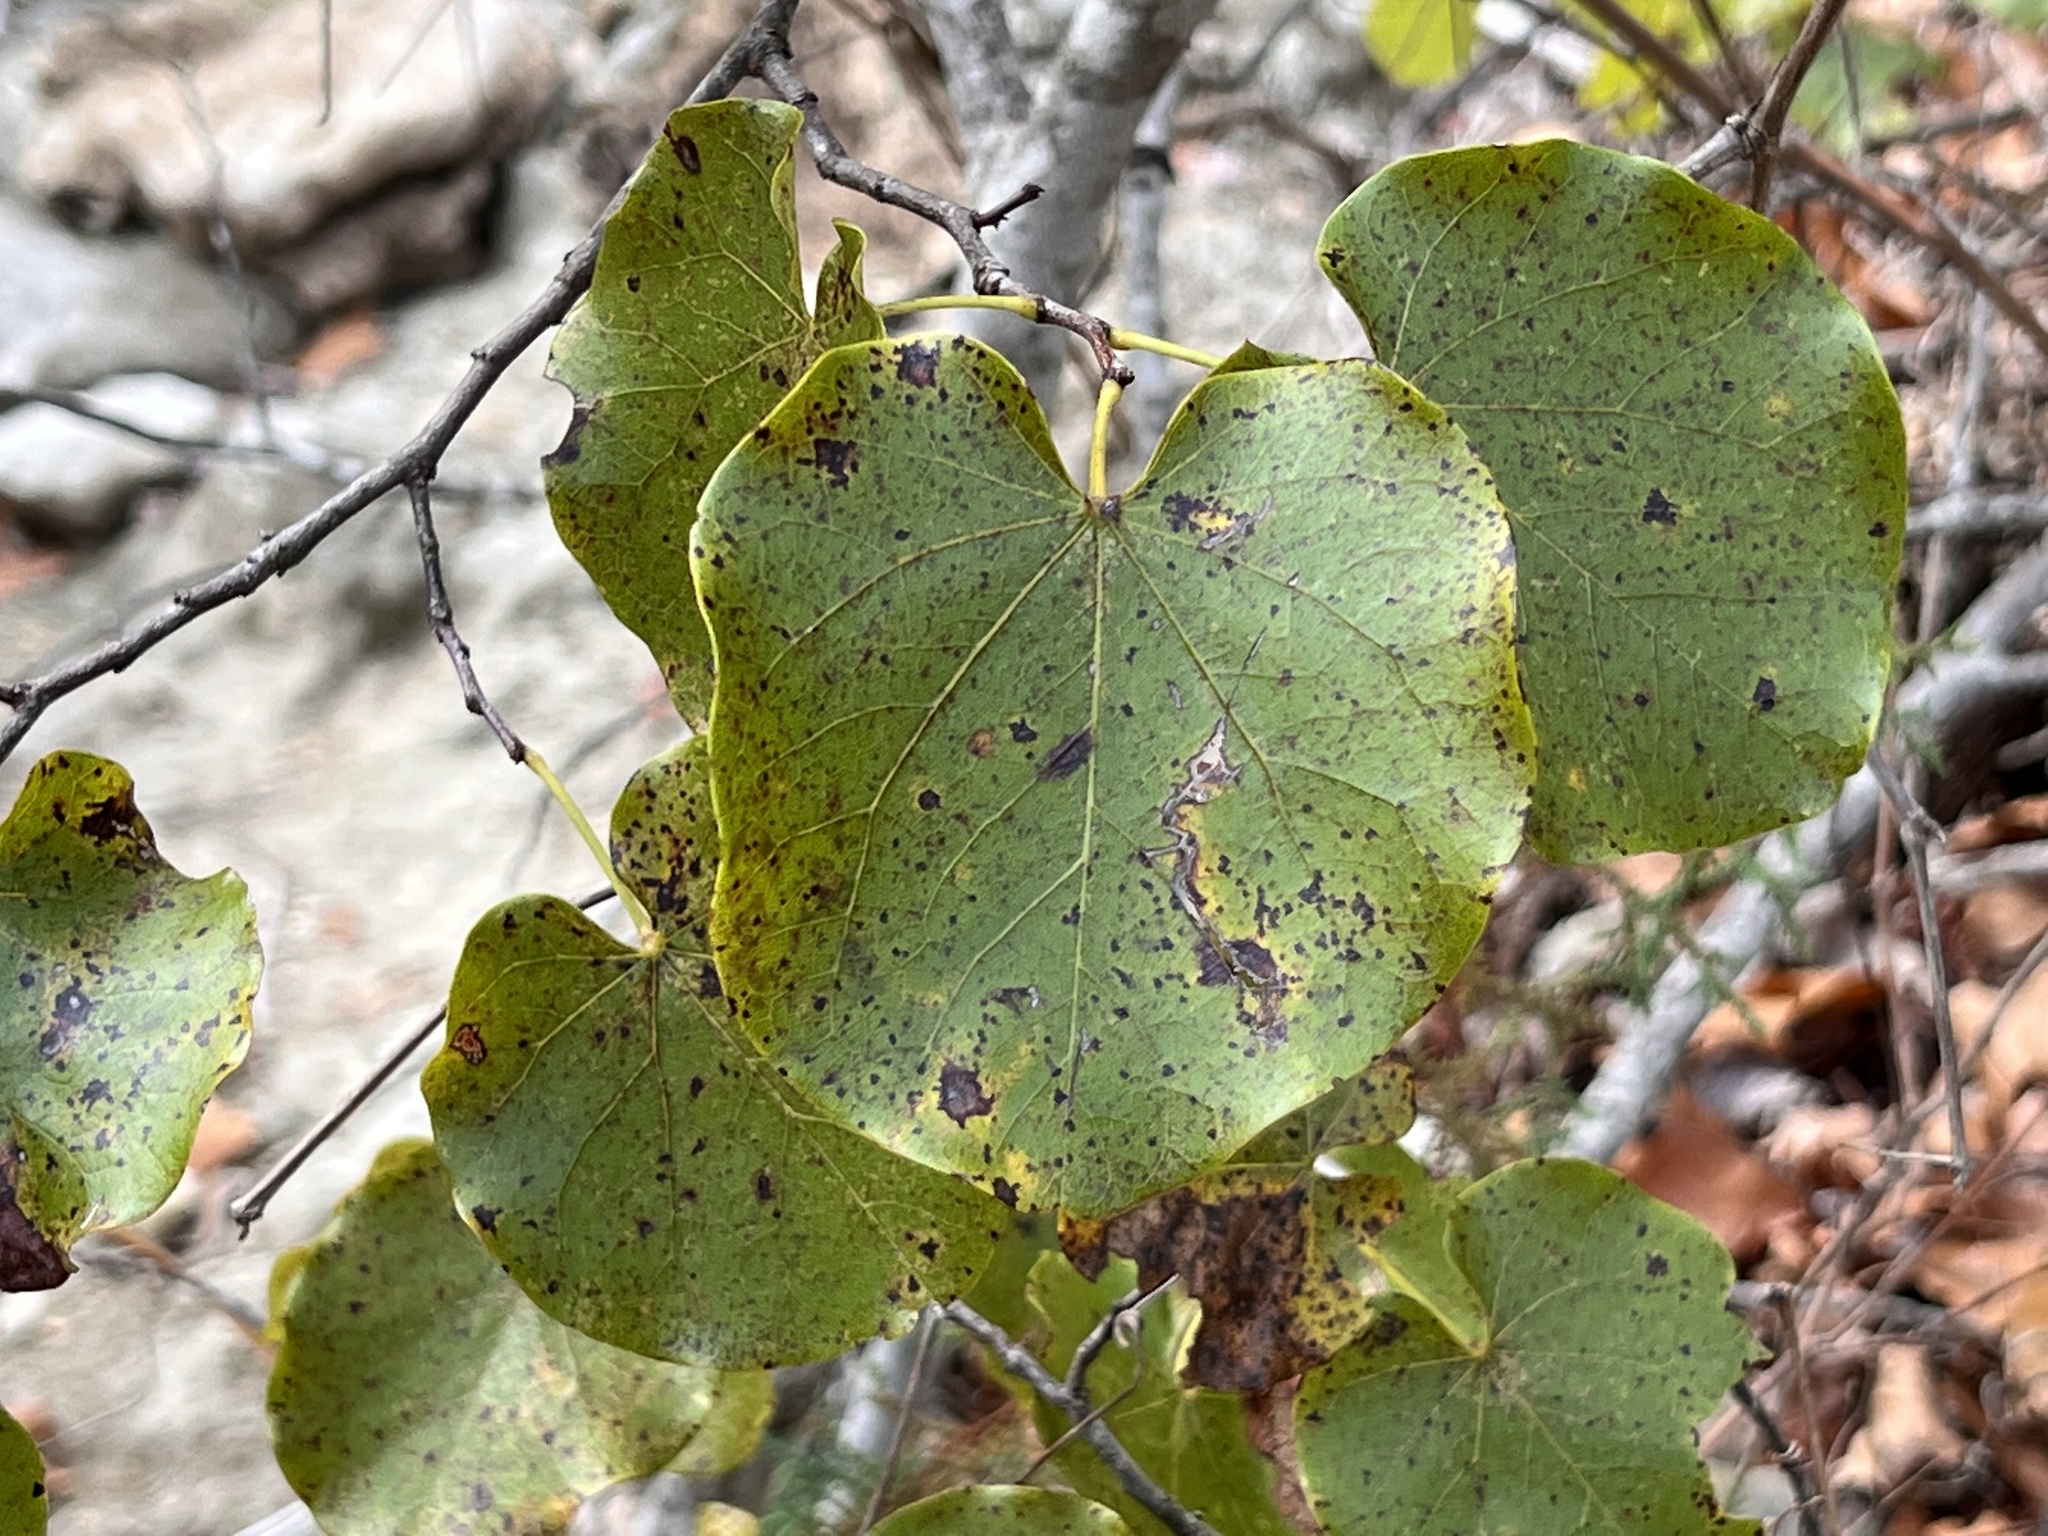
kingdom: Plantae
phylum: Tracheophyta
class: Magnoliopsida
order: Fabales
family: Fabaceae
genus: Cercis
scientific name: Cercis canadensis
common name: Eastern redbud
